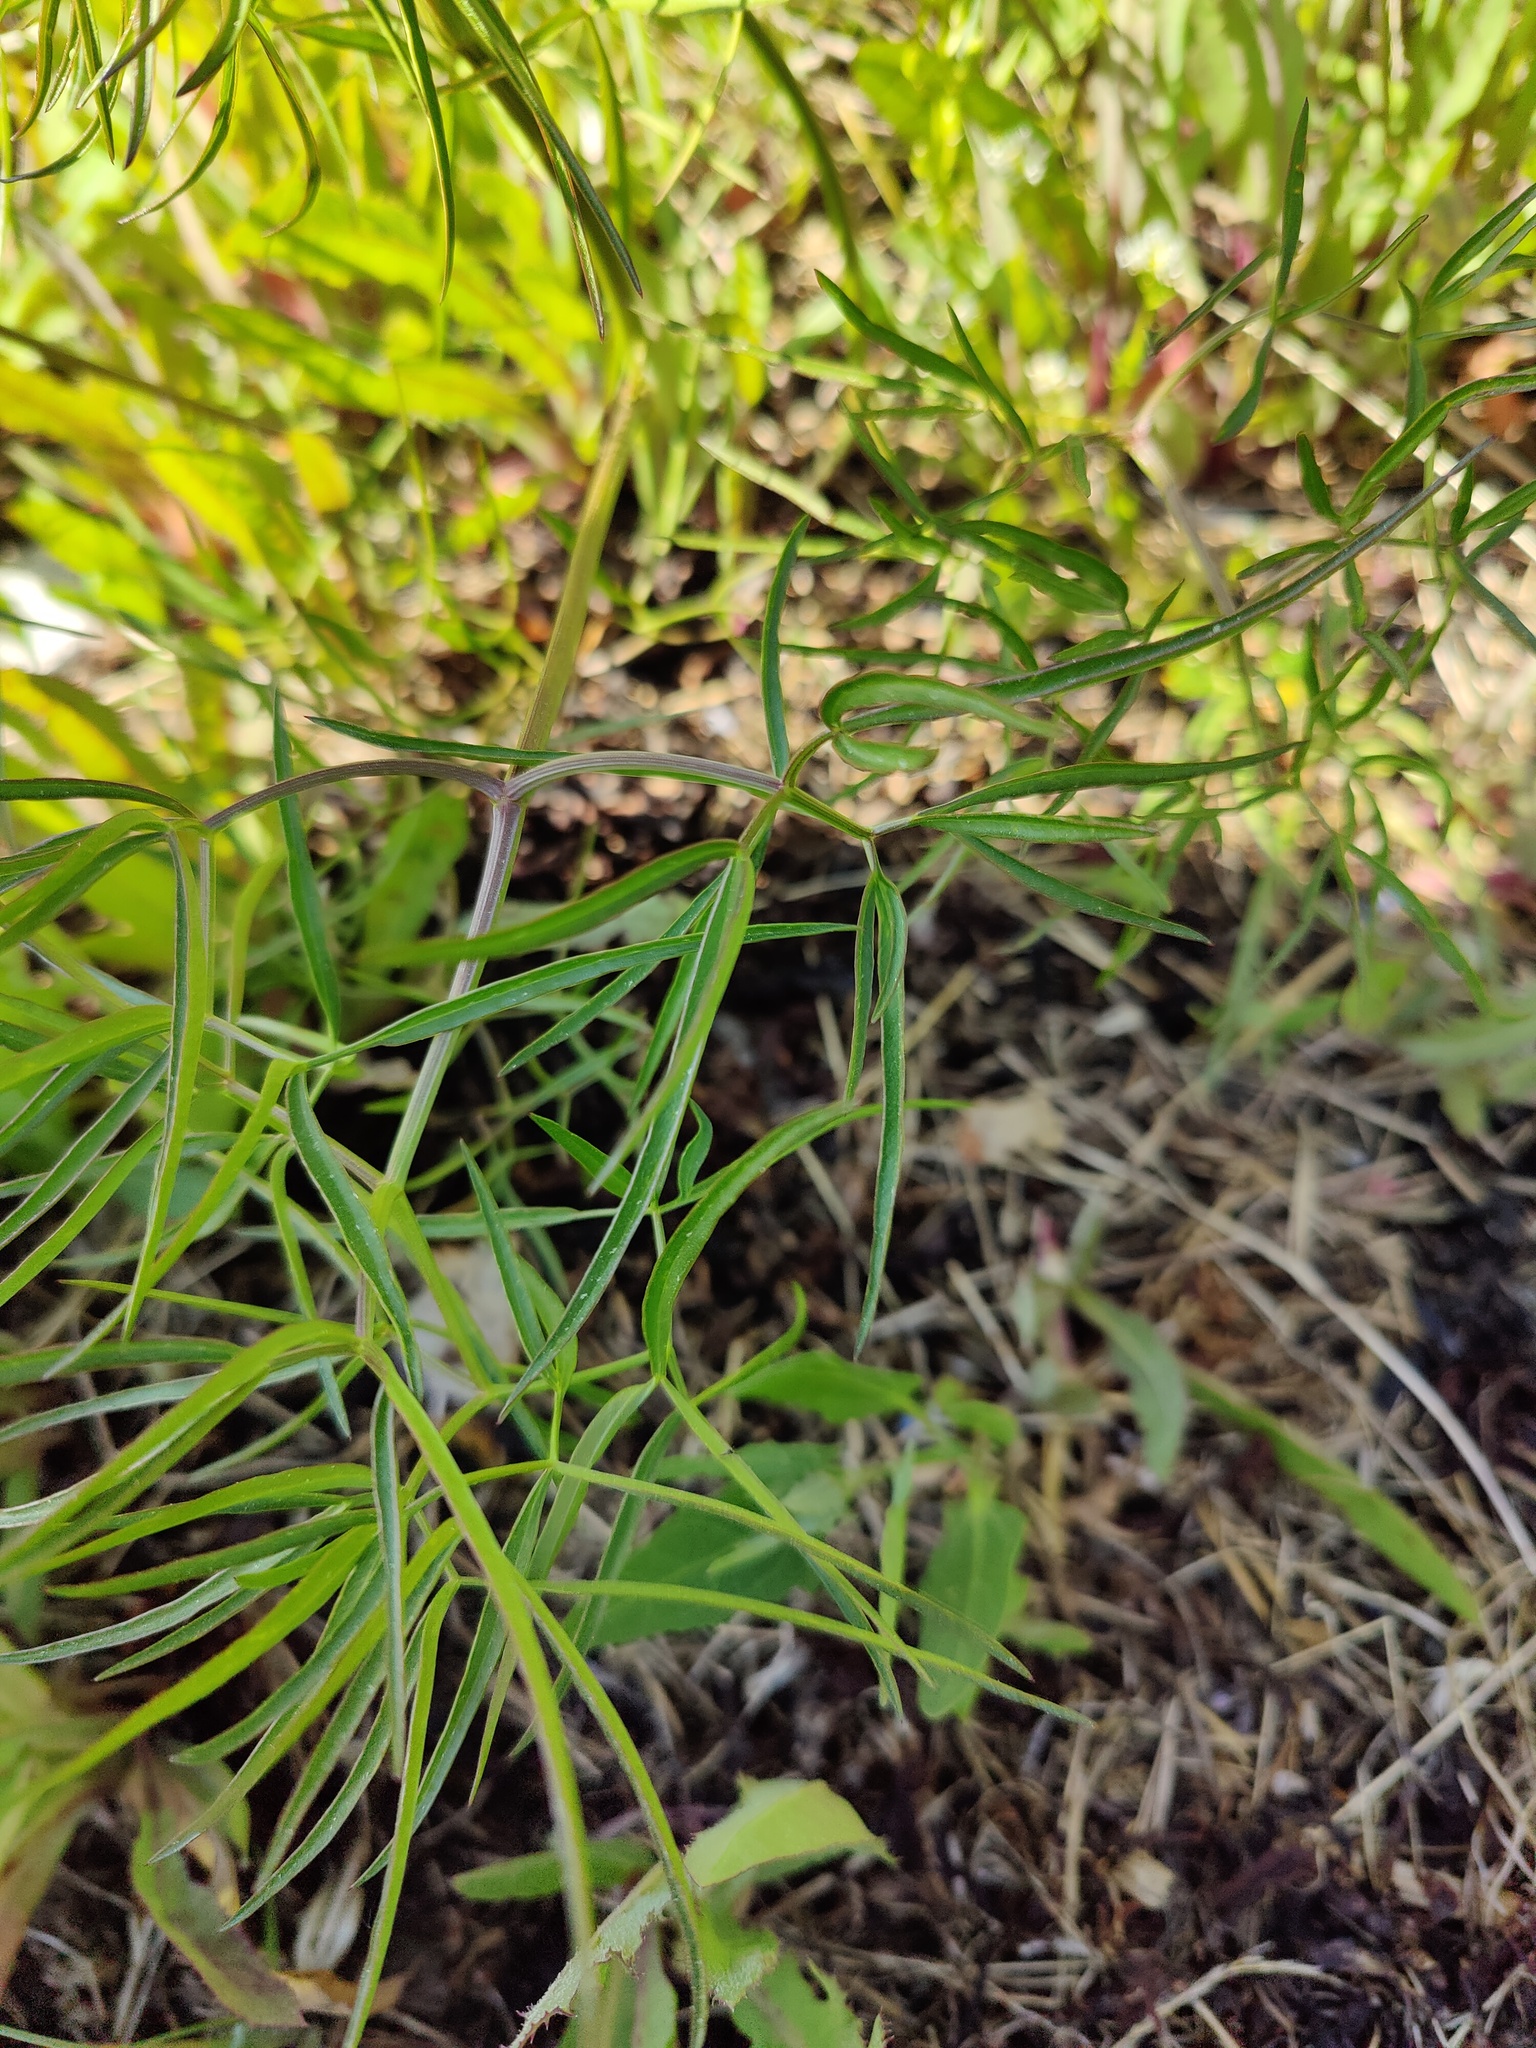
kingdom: Plantae
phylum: Tracheophyta
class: Magnoliopsida
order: Apiales
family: Apiaceae
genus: Cenolophium
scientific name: Cenolophium fischeri
